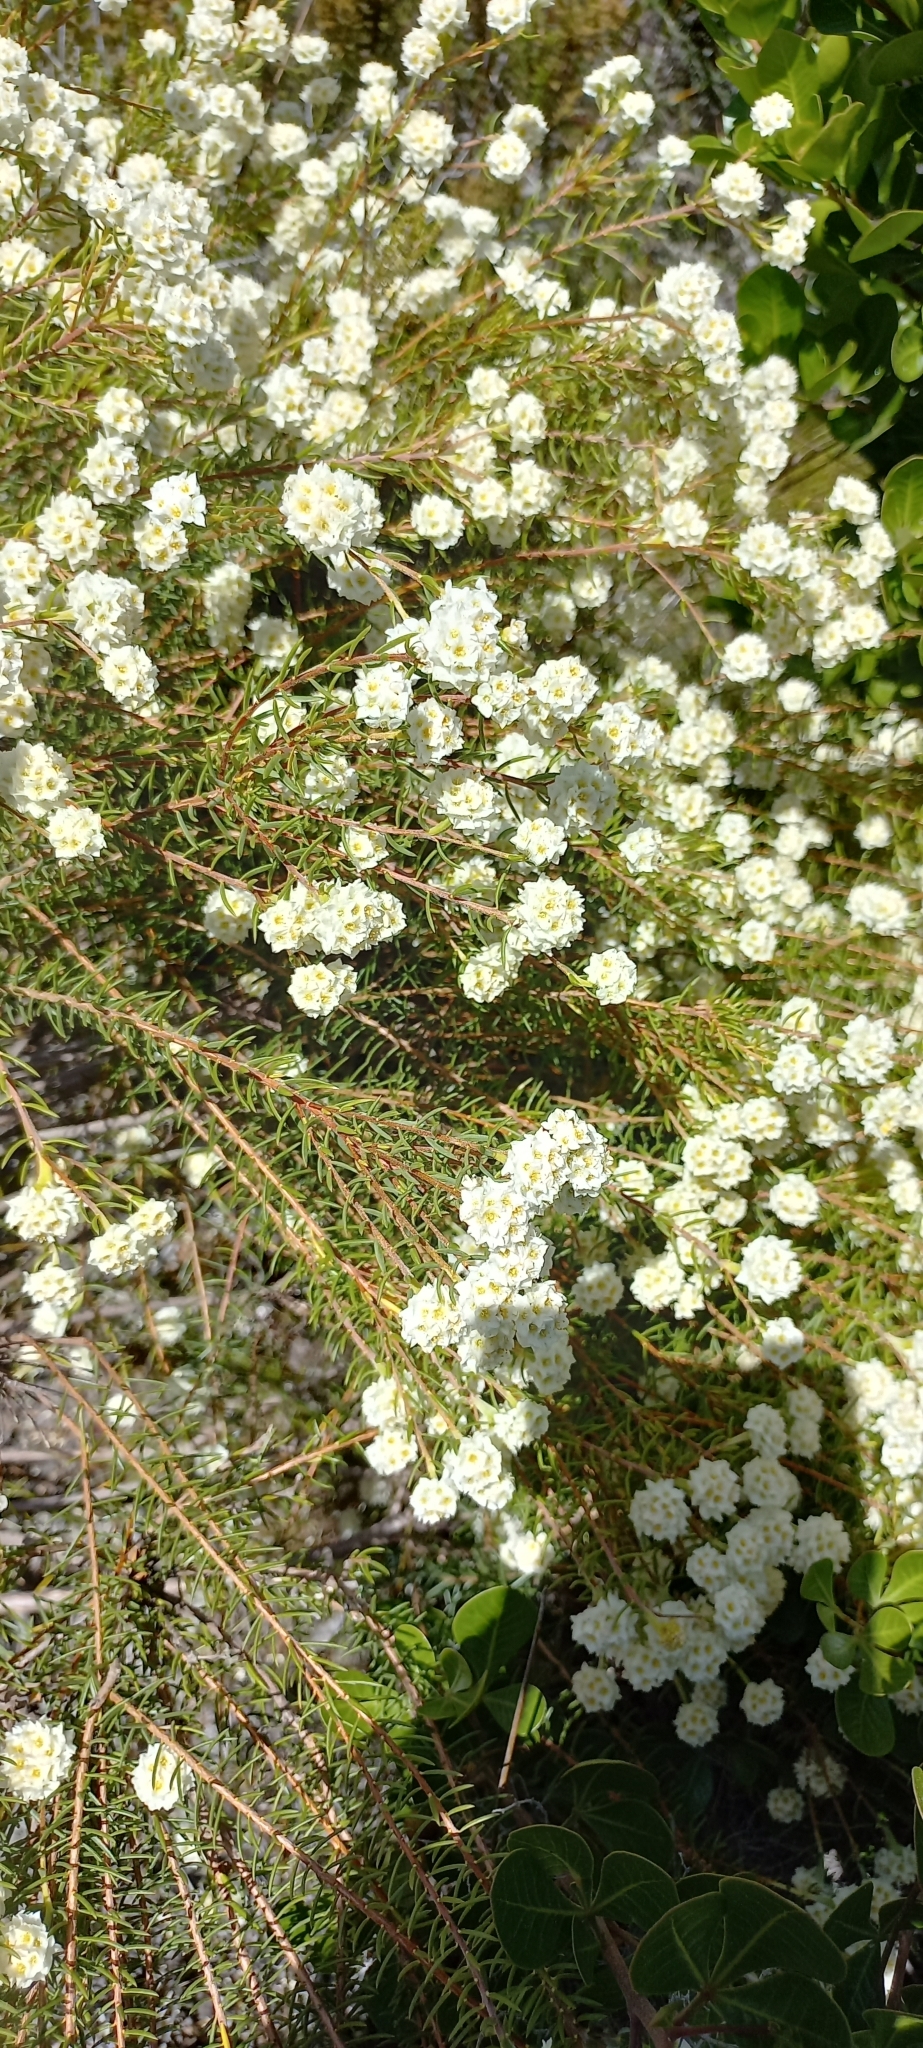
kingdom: Plantae
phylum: Tracheophyta
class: Magnoliopsida
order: Malvales
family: Thymelaeaceae
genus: Lachnaea
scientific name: Lachnaea densiflora
